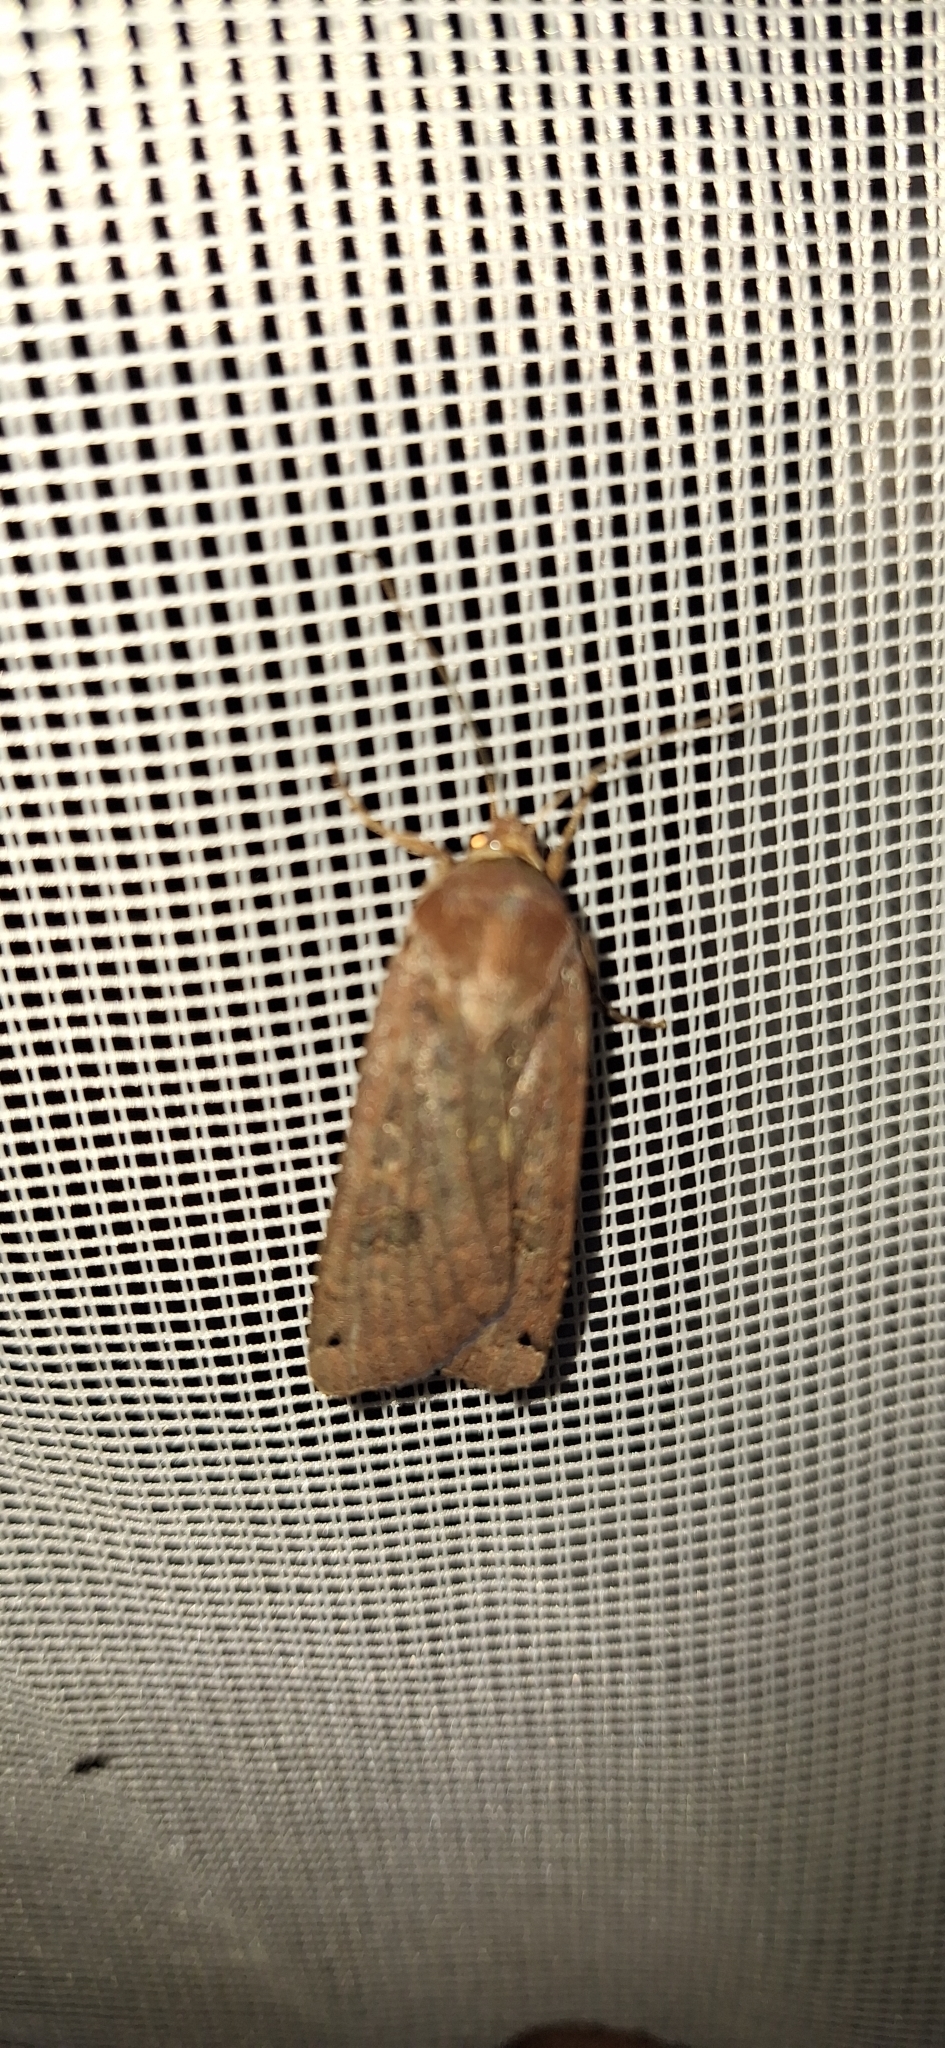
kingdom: Animalia
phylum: Arthropoda
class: Insecta
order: Lepidoptera
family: Noctuidae
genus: Noctua
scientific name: Noctua pronuba
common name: Large yellow underwing
